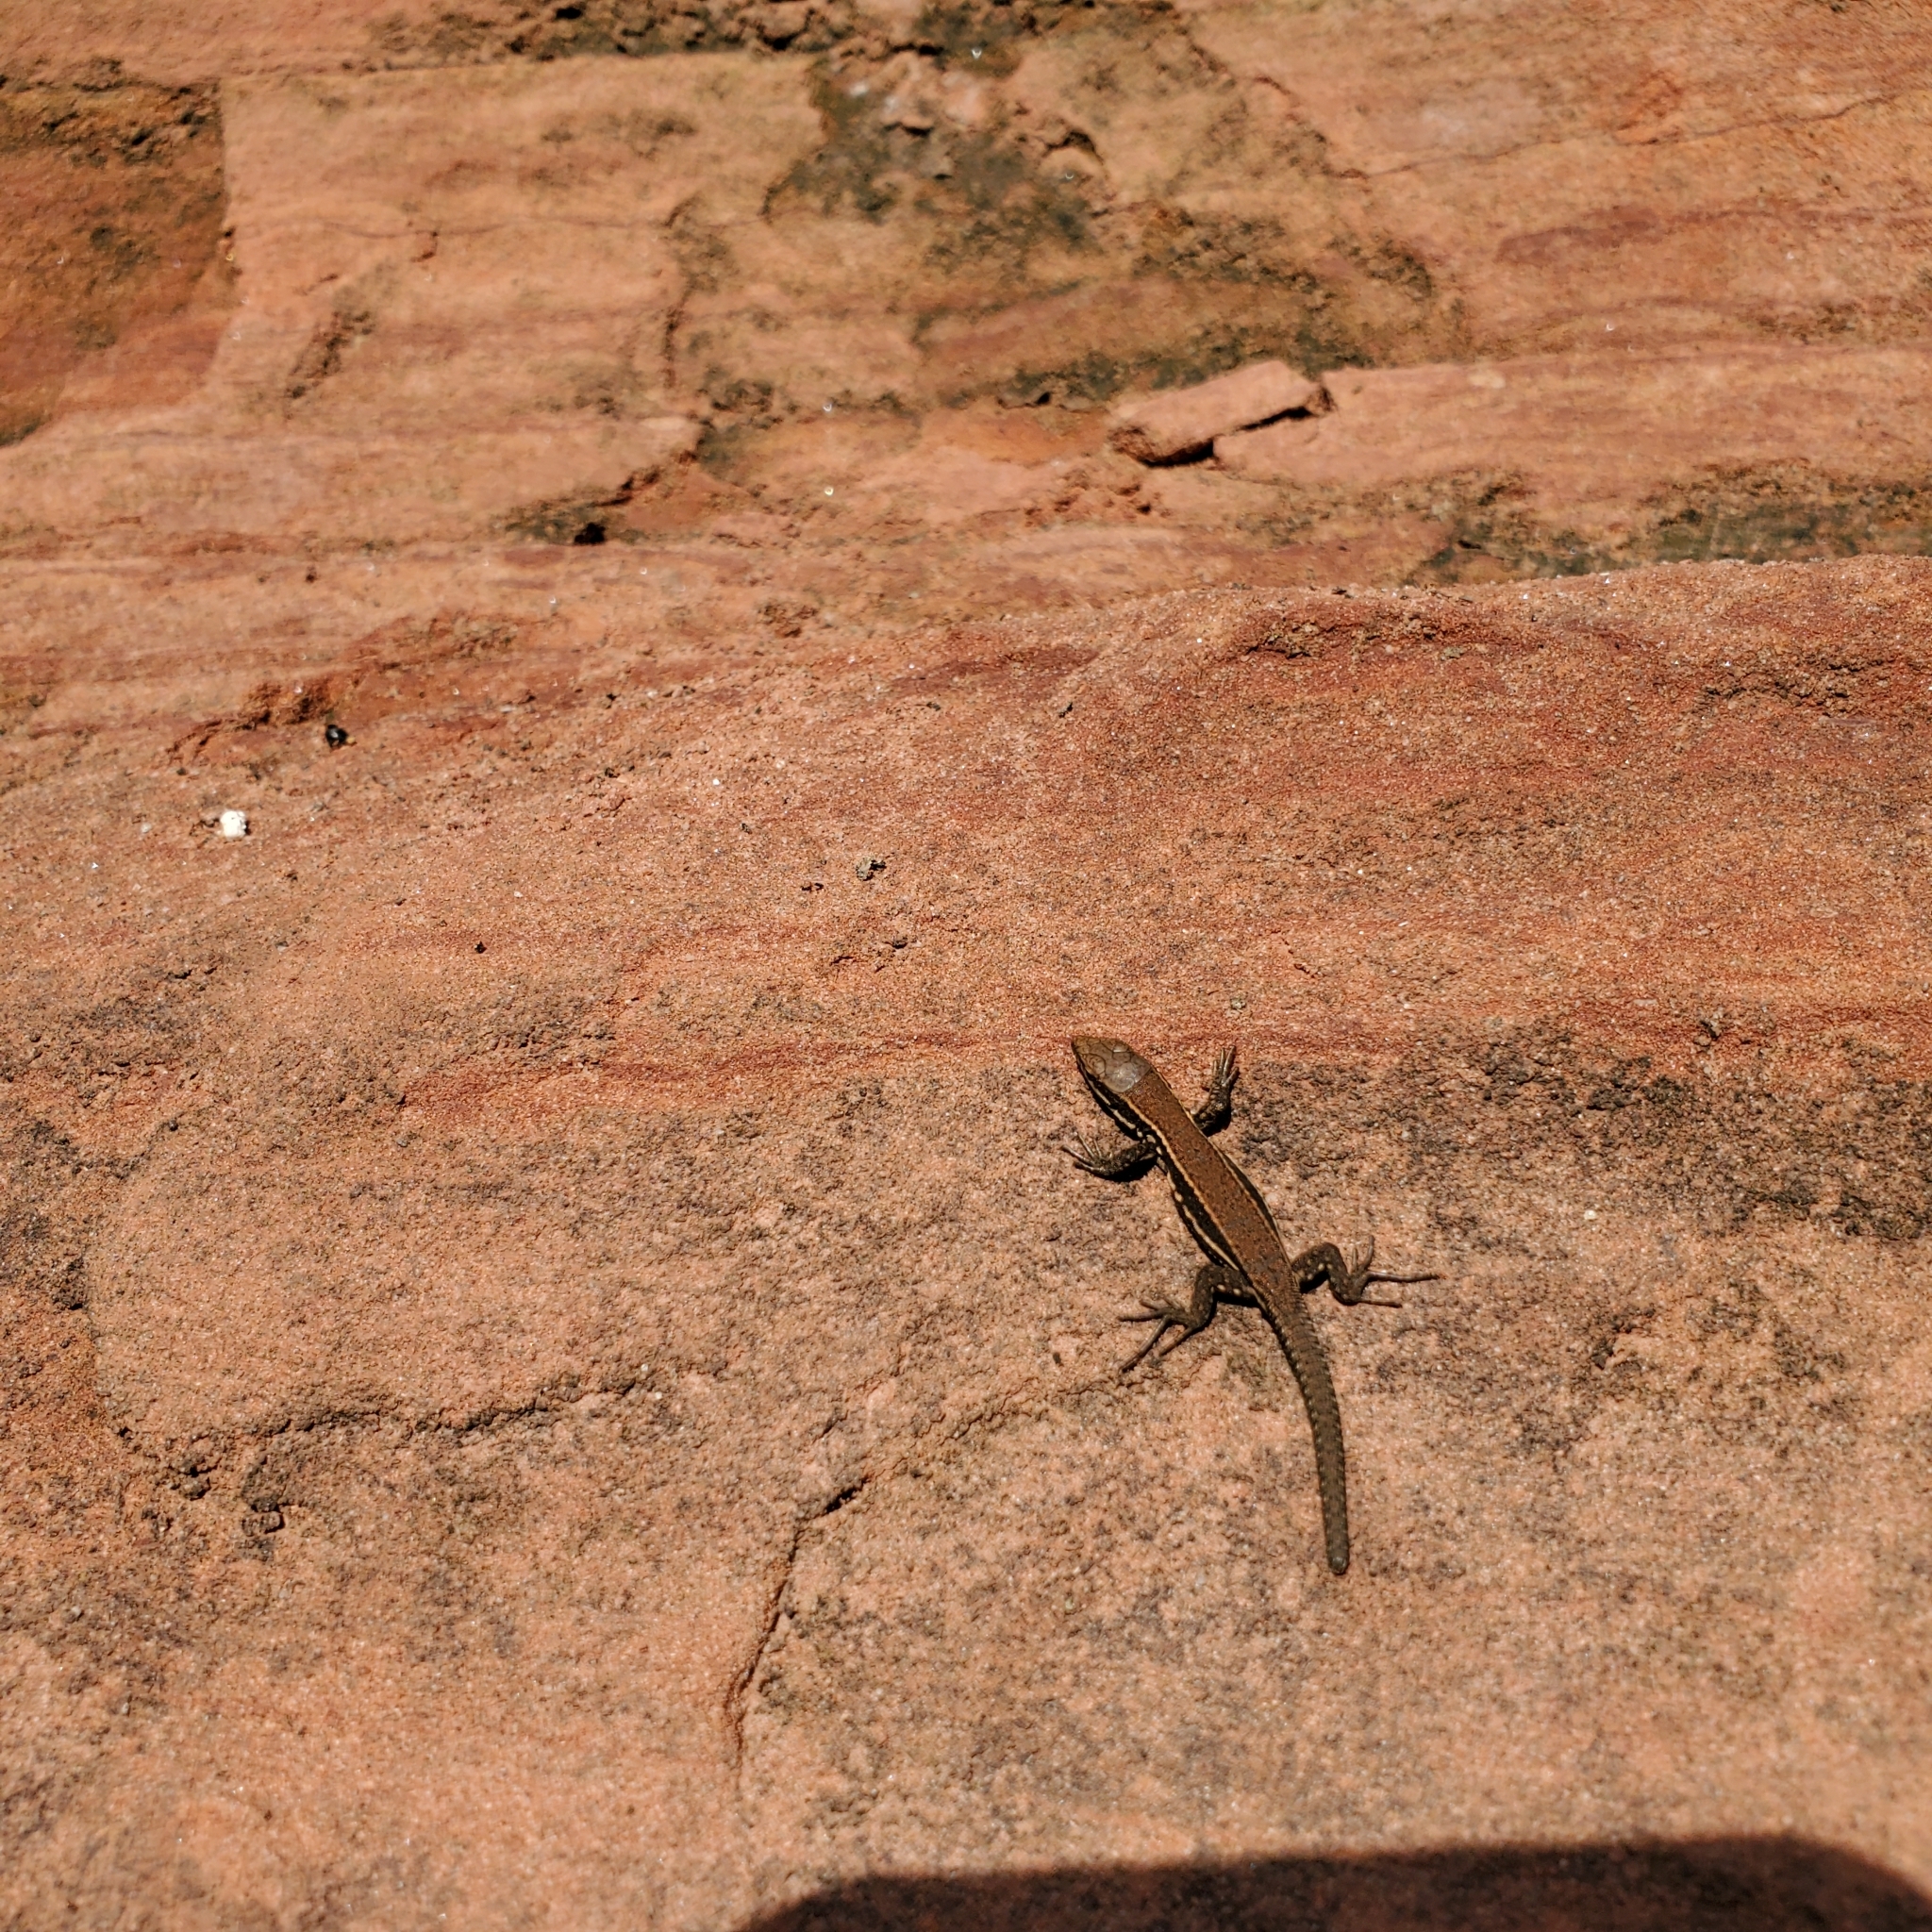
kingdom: Animalia
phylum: Chordata
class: Squamata
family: Lacertidae
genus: Podarcis
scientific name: Podarcis muralis
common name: Common wall lizard
